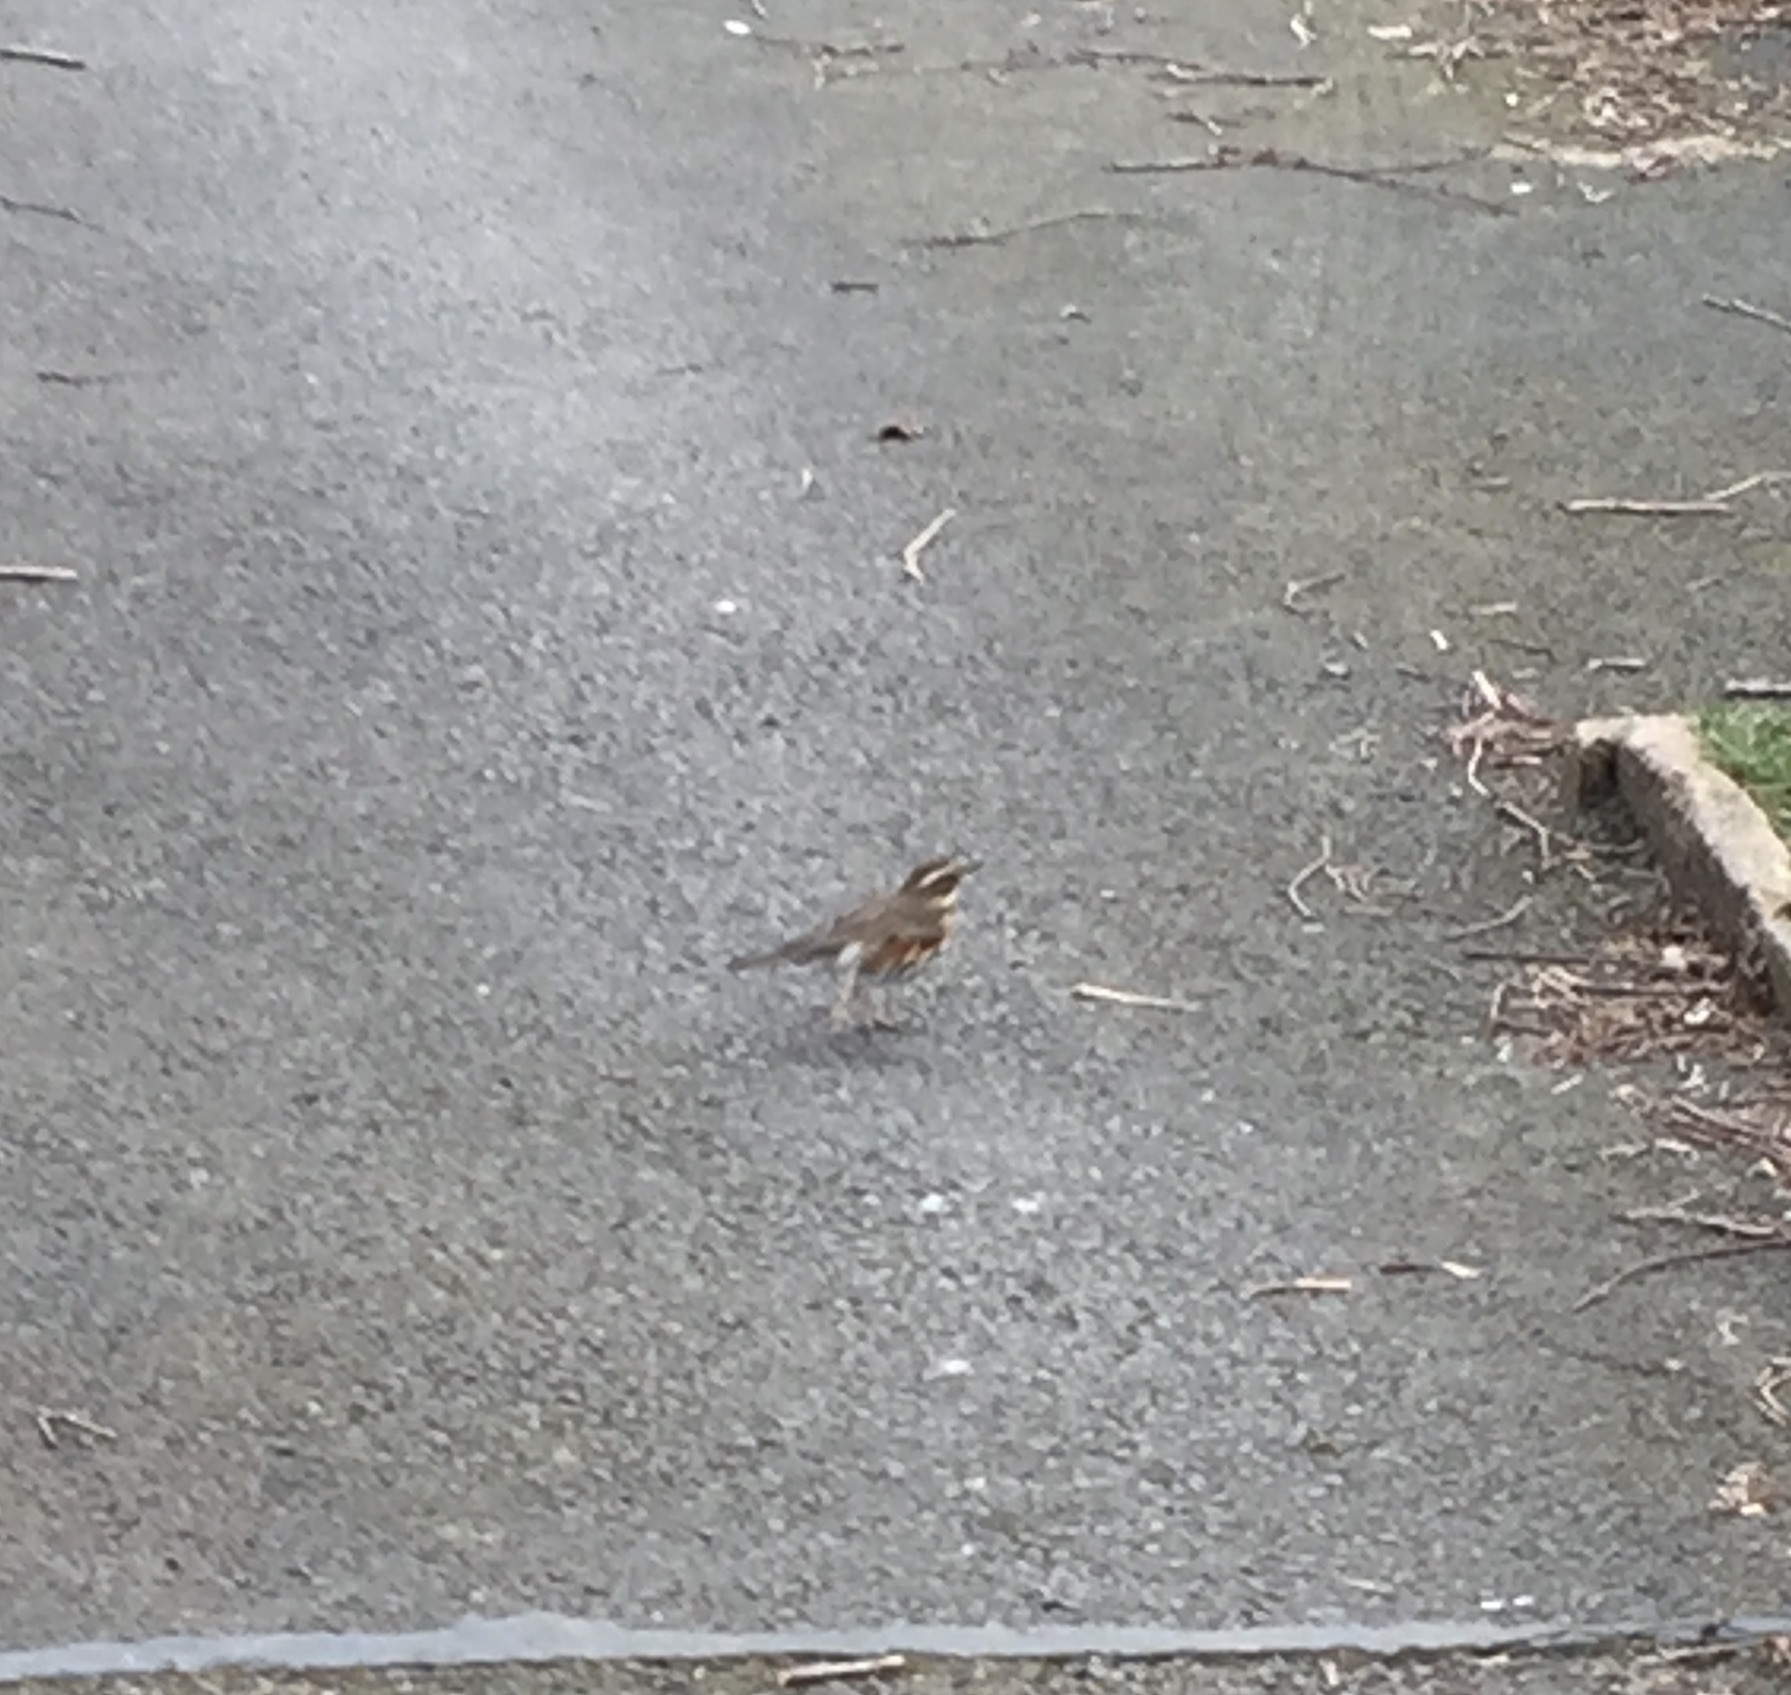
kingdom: Animalia
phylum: Chordata
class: Aves
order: Passeriformes
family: Turdidae
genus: Turdus
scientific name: Turdus iliacus
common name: Redwing
